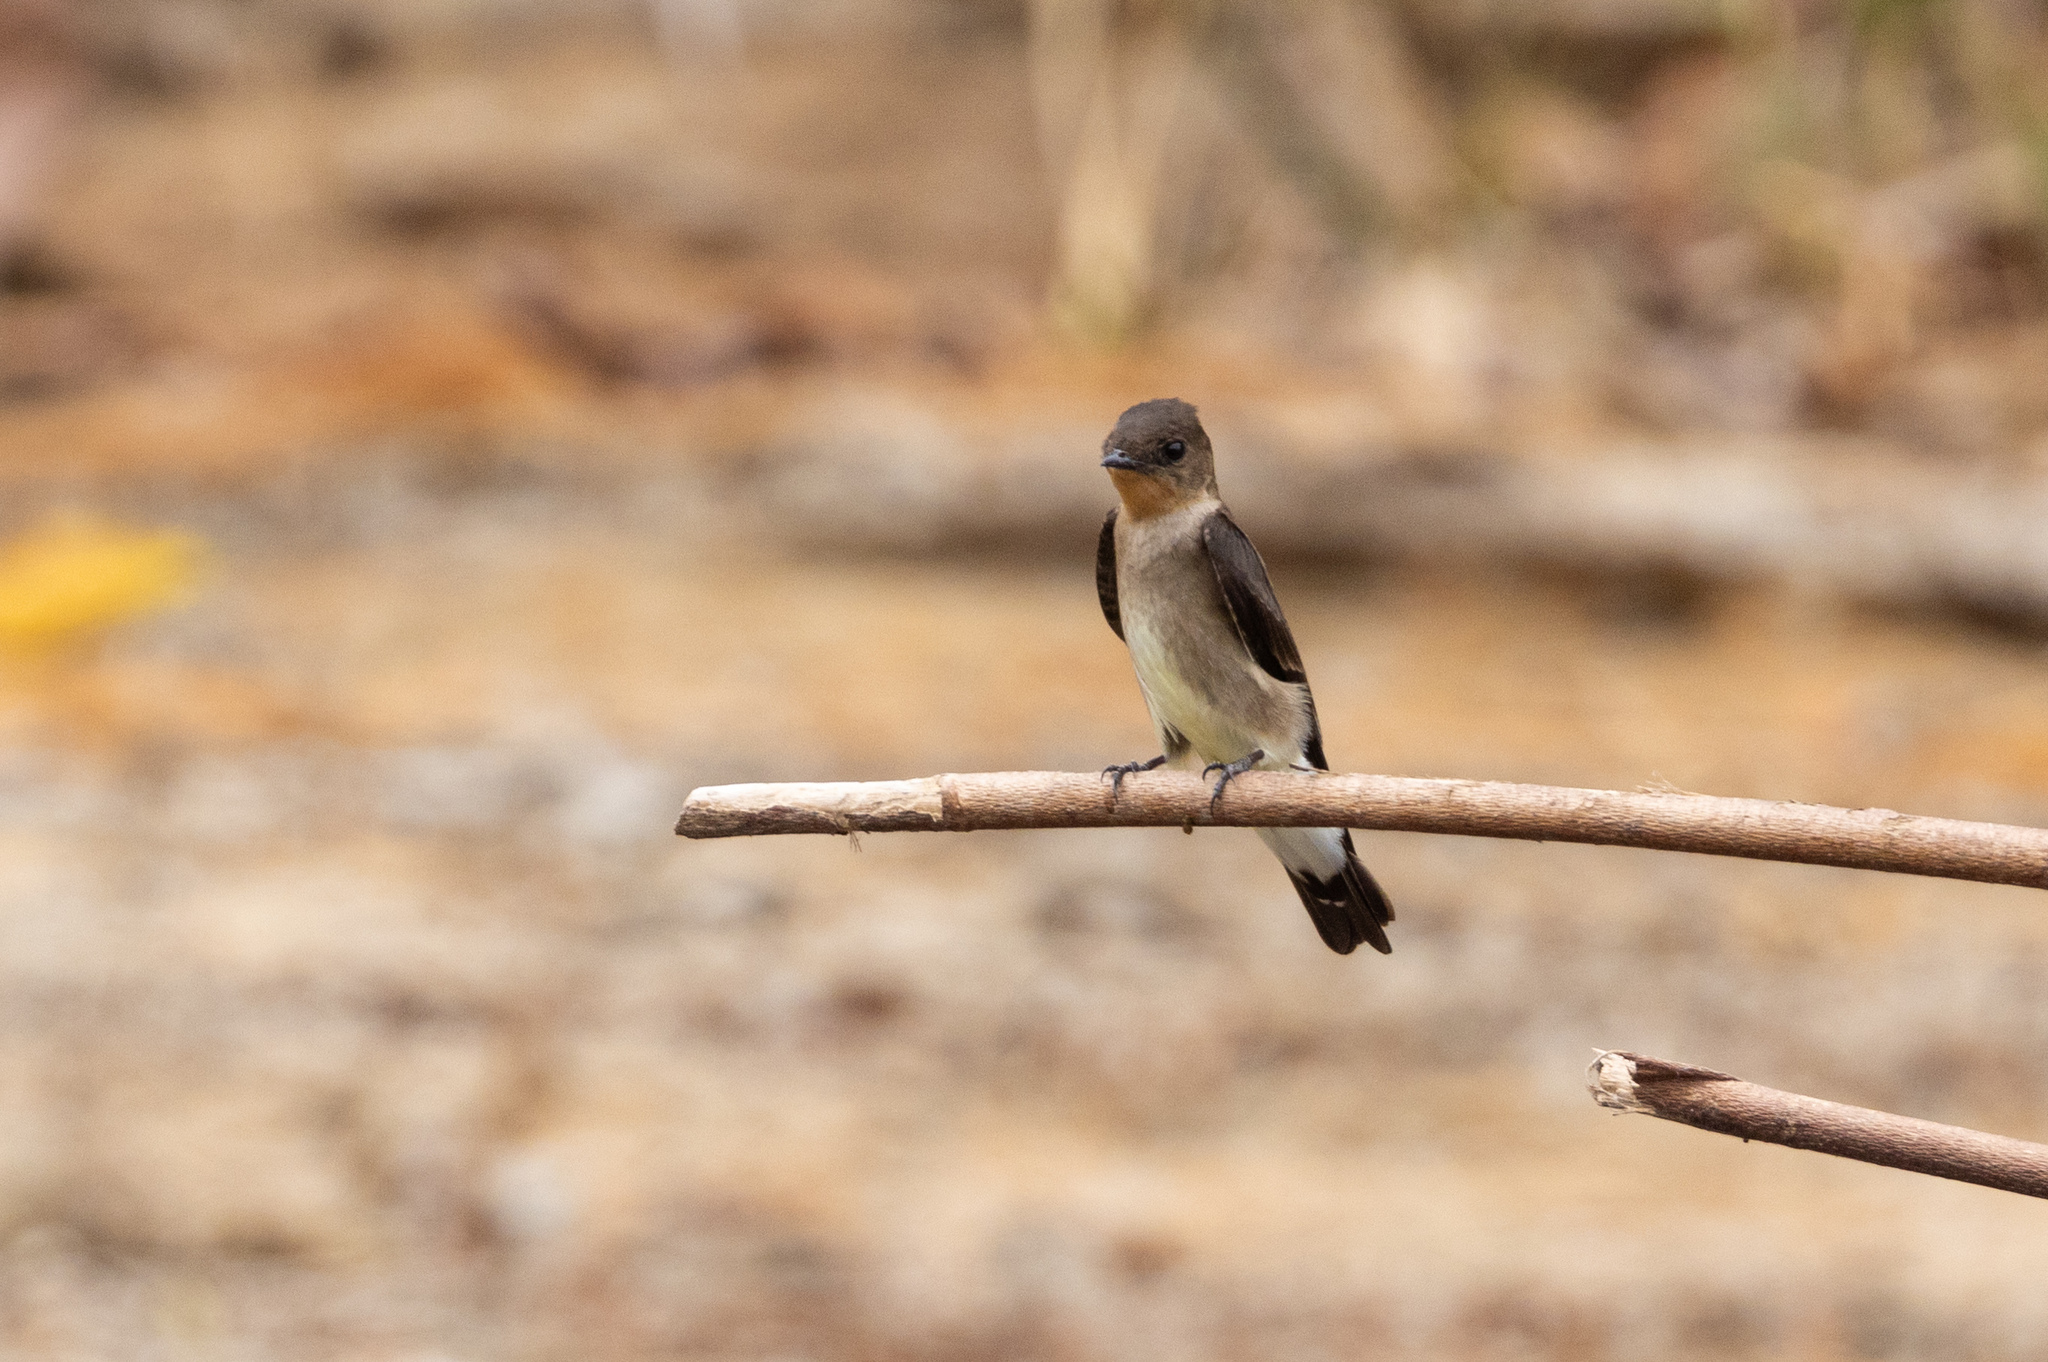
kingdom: Animalia
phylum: Chordata
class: Aves
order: Passeriformes
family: Hirundinidae
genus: Stelgidopteryx
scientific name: Stelgidopteryx ruficollis
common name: Southern rough-winged swallow
